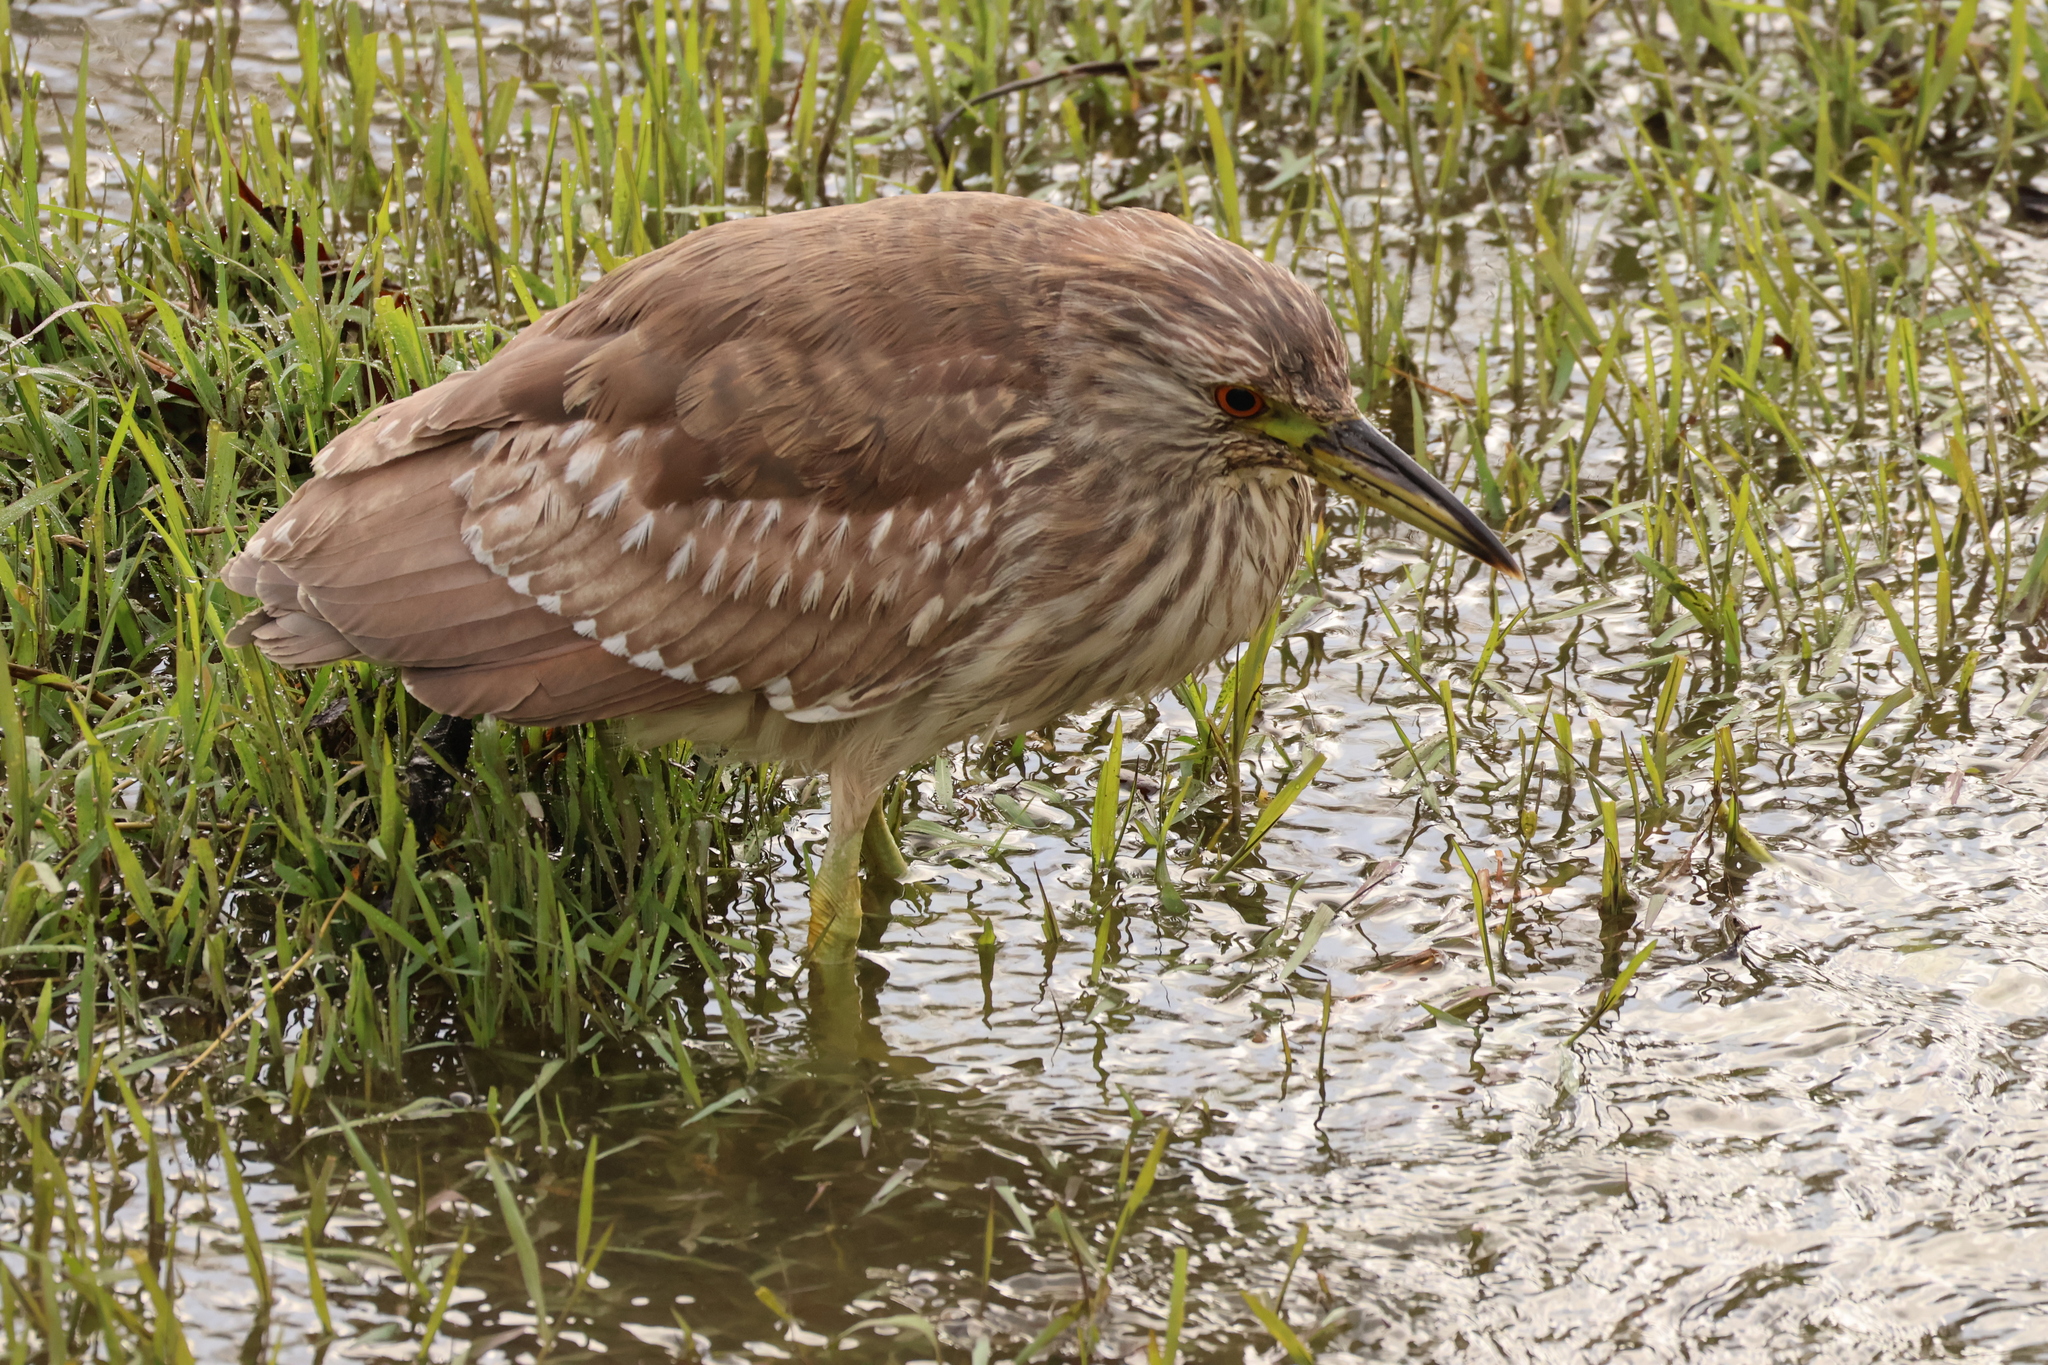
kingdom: Animalia
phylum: Chordata
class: Aves
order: Pelecaniformes
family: Ardeidae
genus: Nycticorax
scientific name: Nycticorax nycticorax
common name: Black-crowned night heron
